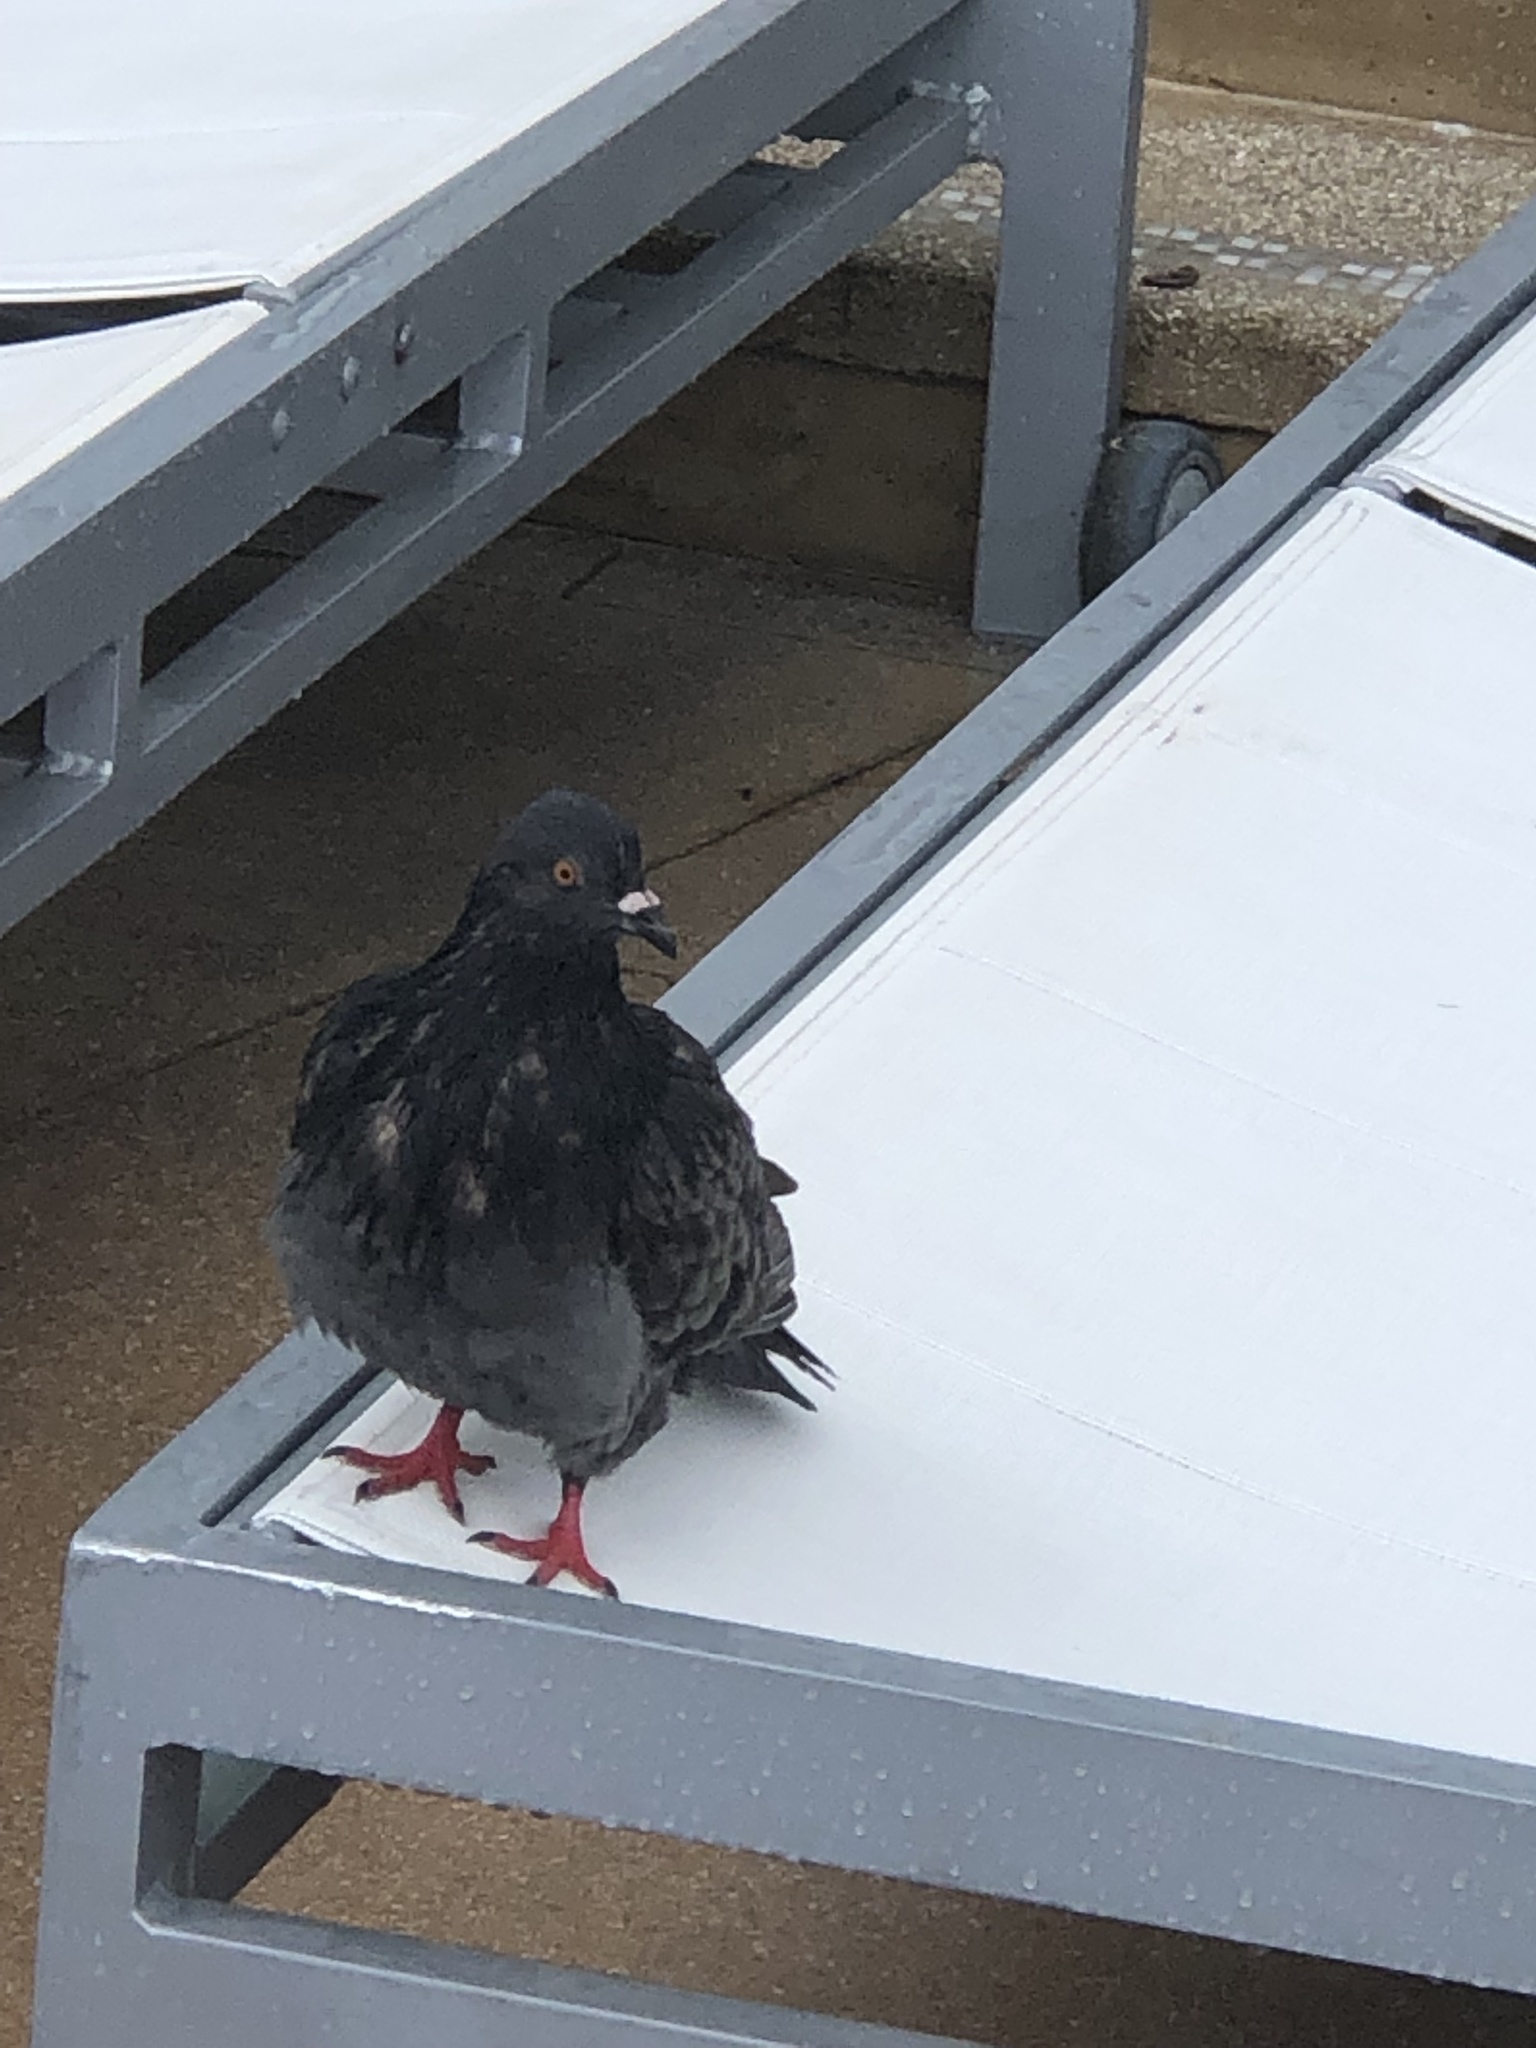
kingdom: Animalia
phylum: Chordata
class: Aves
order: Columbiformes
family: Columbidae
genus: Columba
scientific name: Columba livia
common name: Rock pigeon
